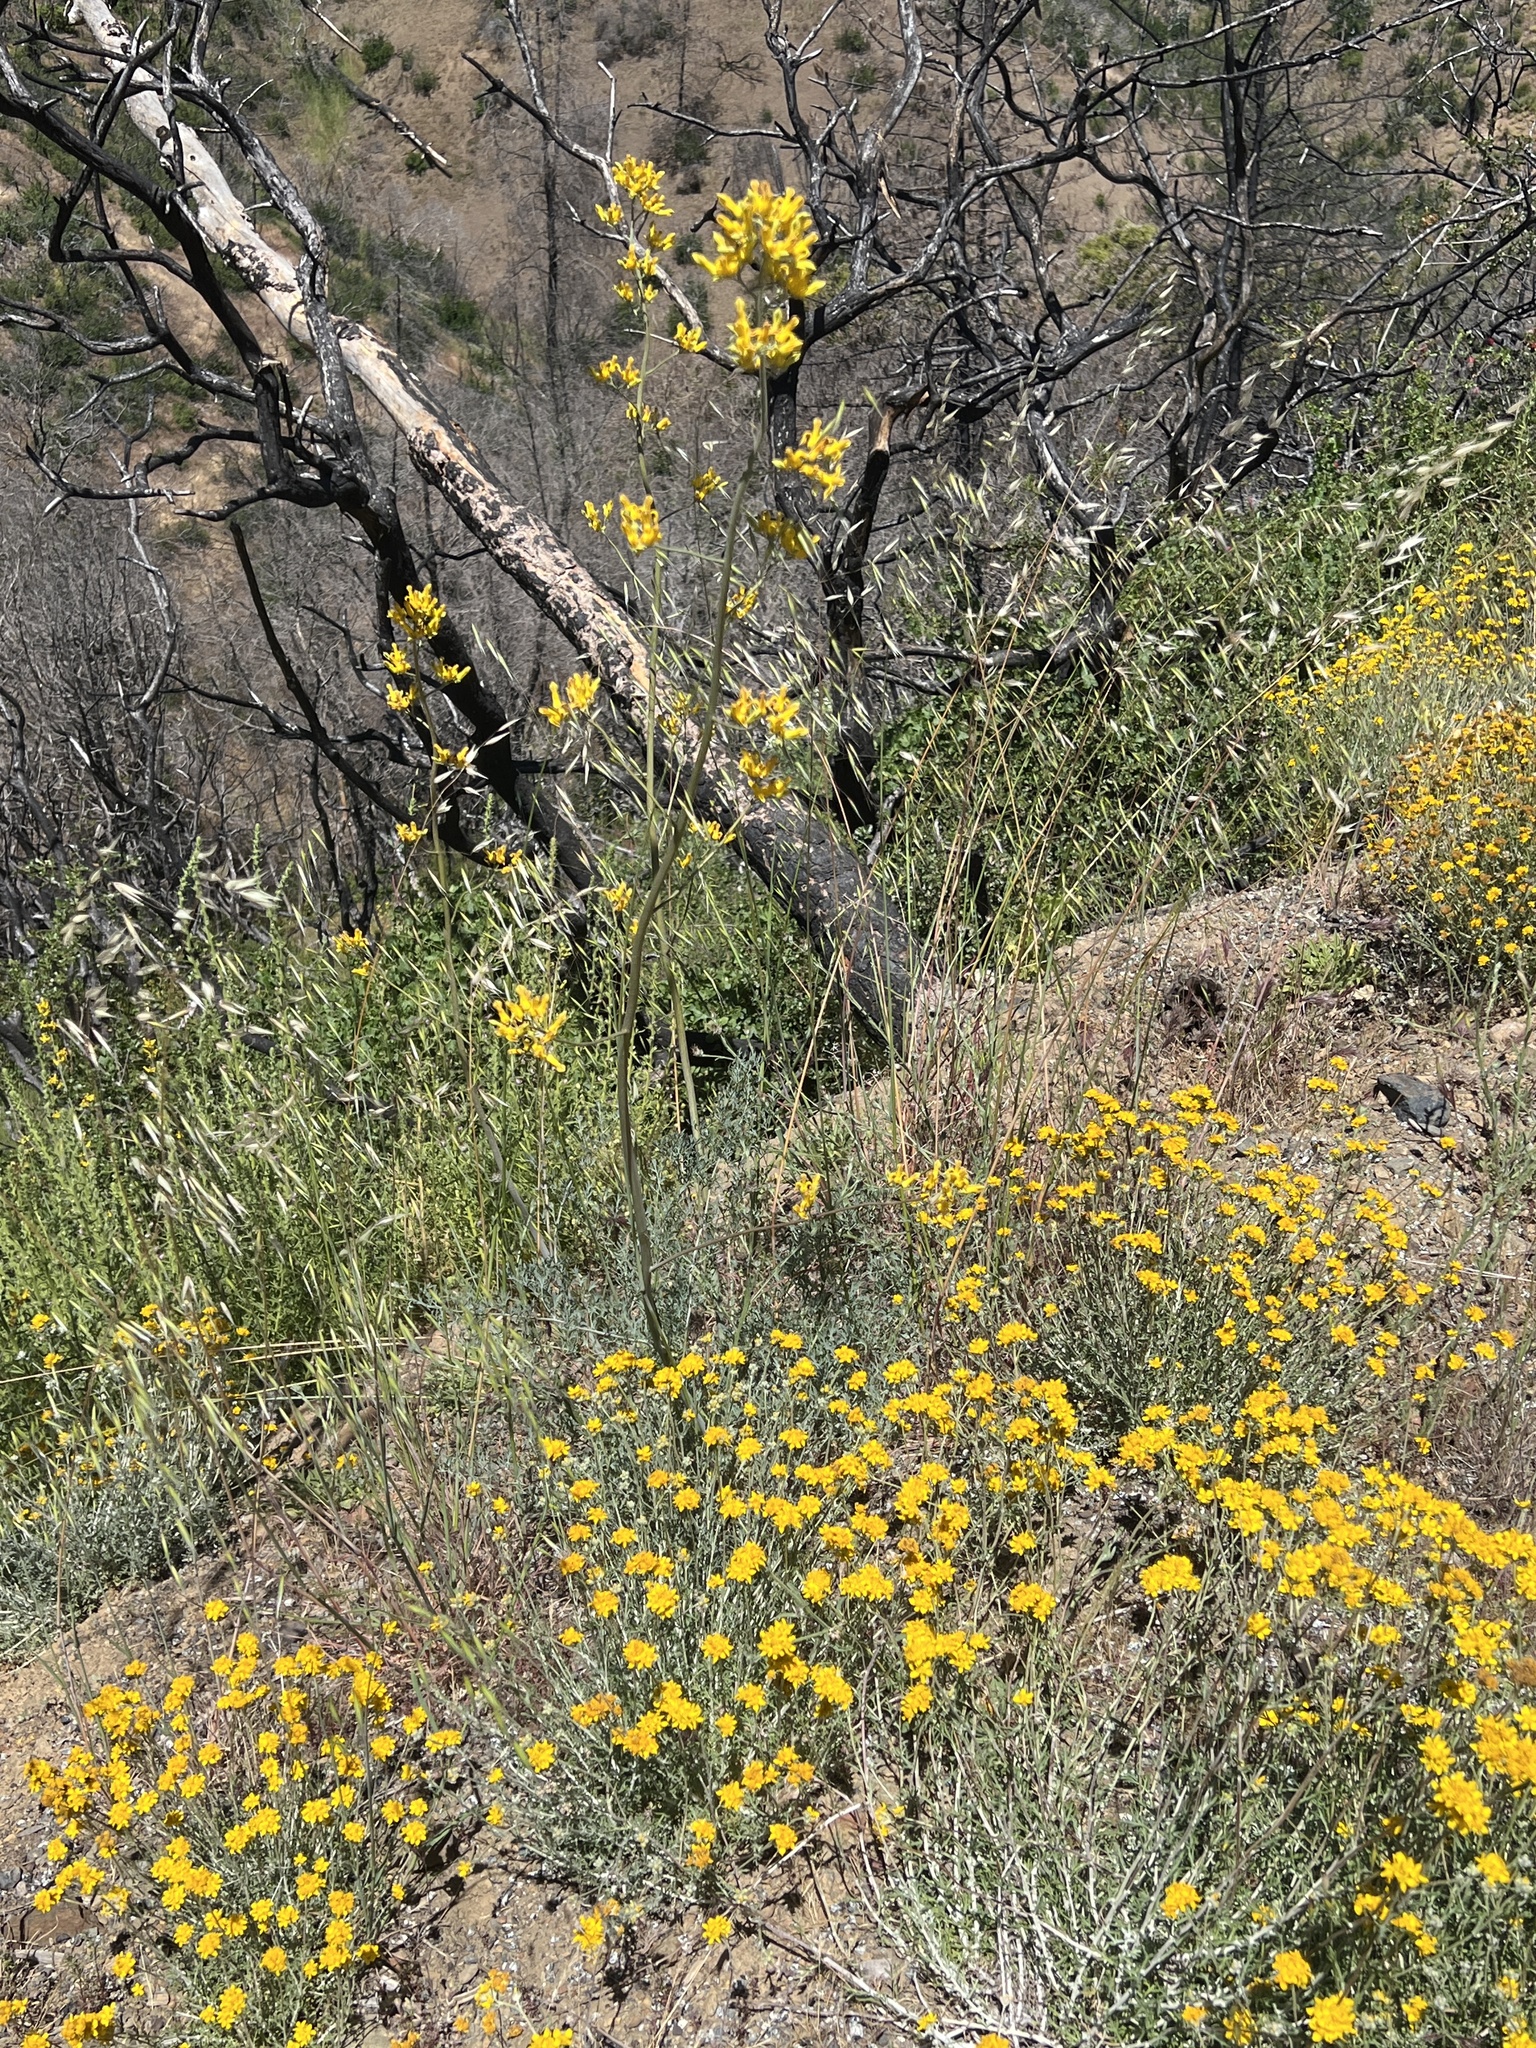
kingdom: Plantae
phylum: Tracheophyta
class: Magnoliopsida
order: Ranunculales
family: Papaveraceae
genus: Ehrendorferia
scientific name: Ehrendorferia chrysantha
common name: Golden eardrops
